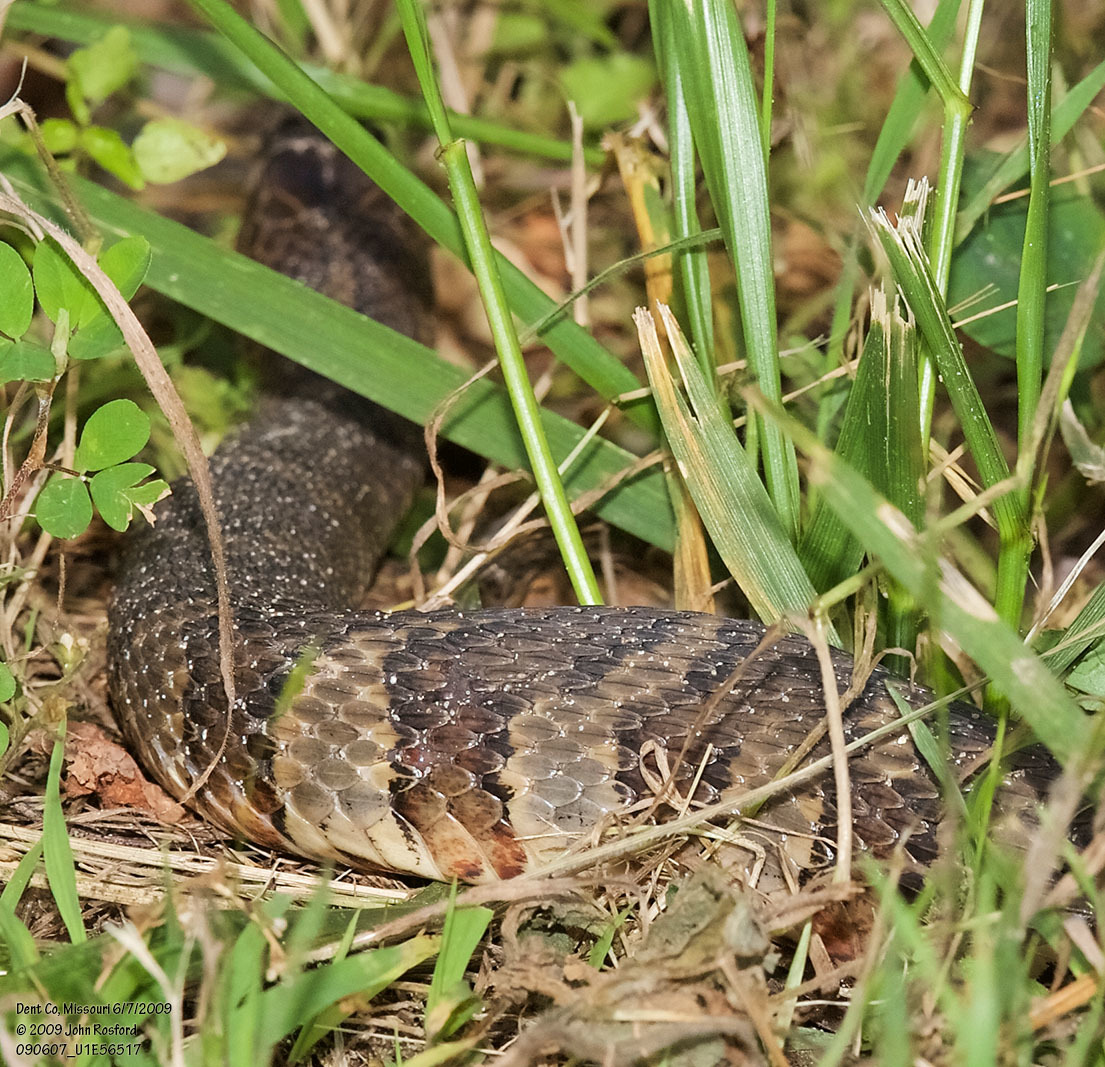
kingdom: Animalia
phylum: Chordata
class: Squamata
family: Colubridae
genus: Nerodia
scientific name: Nerodia sipedon
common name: Northern water snake
